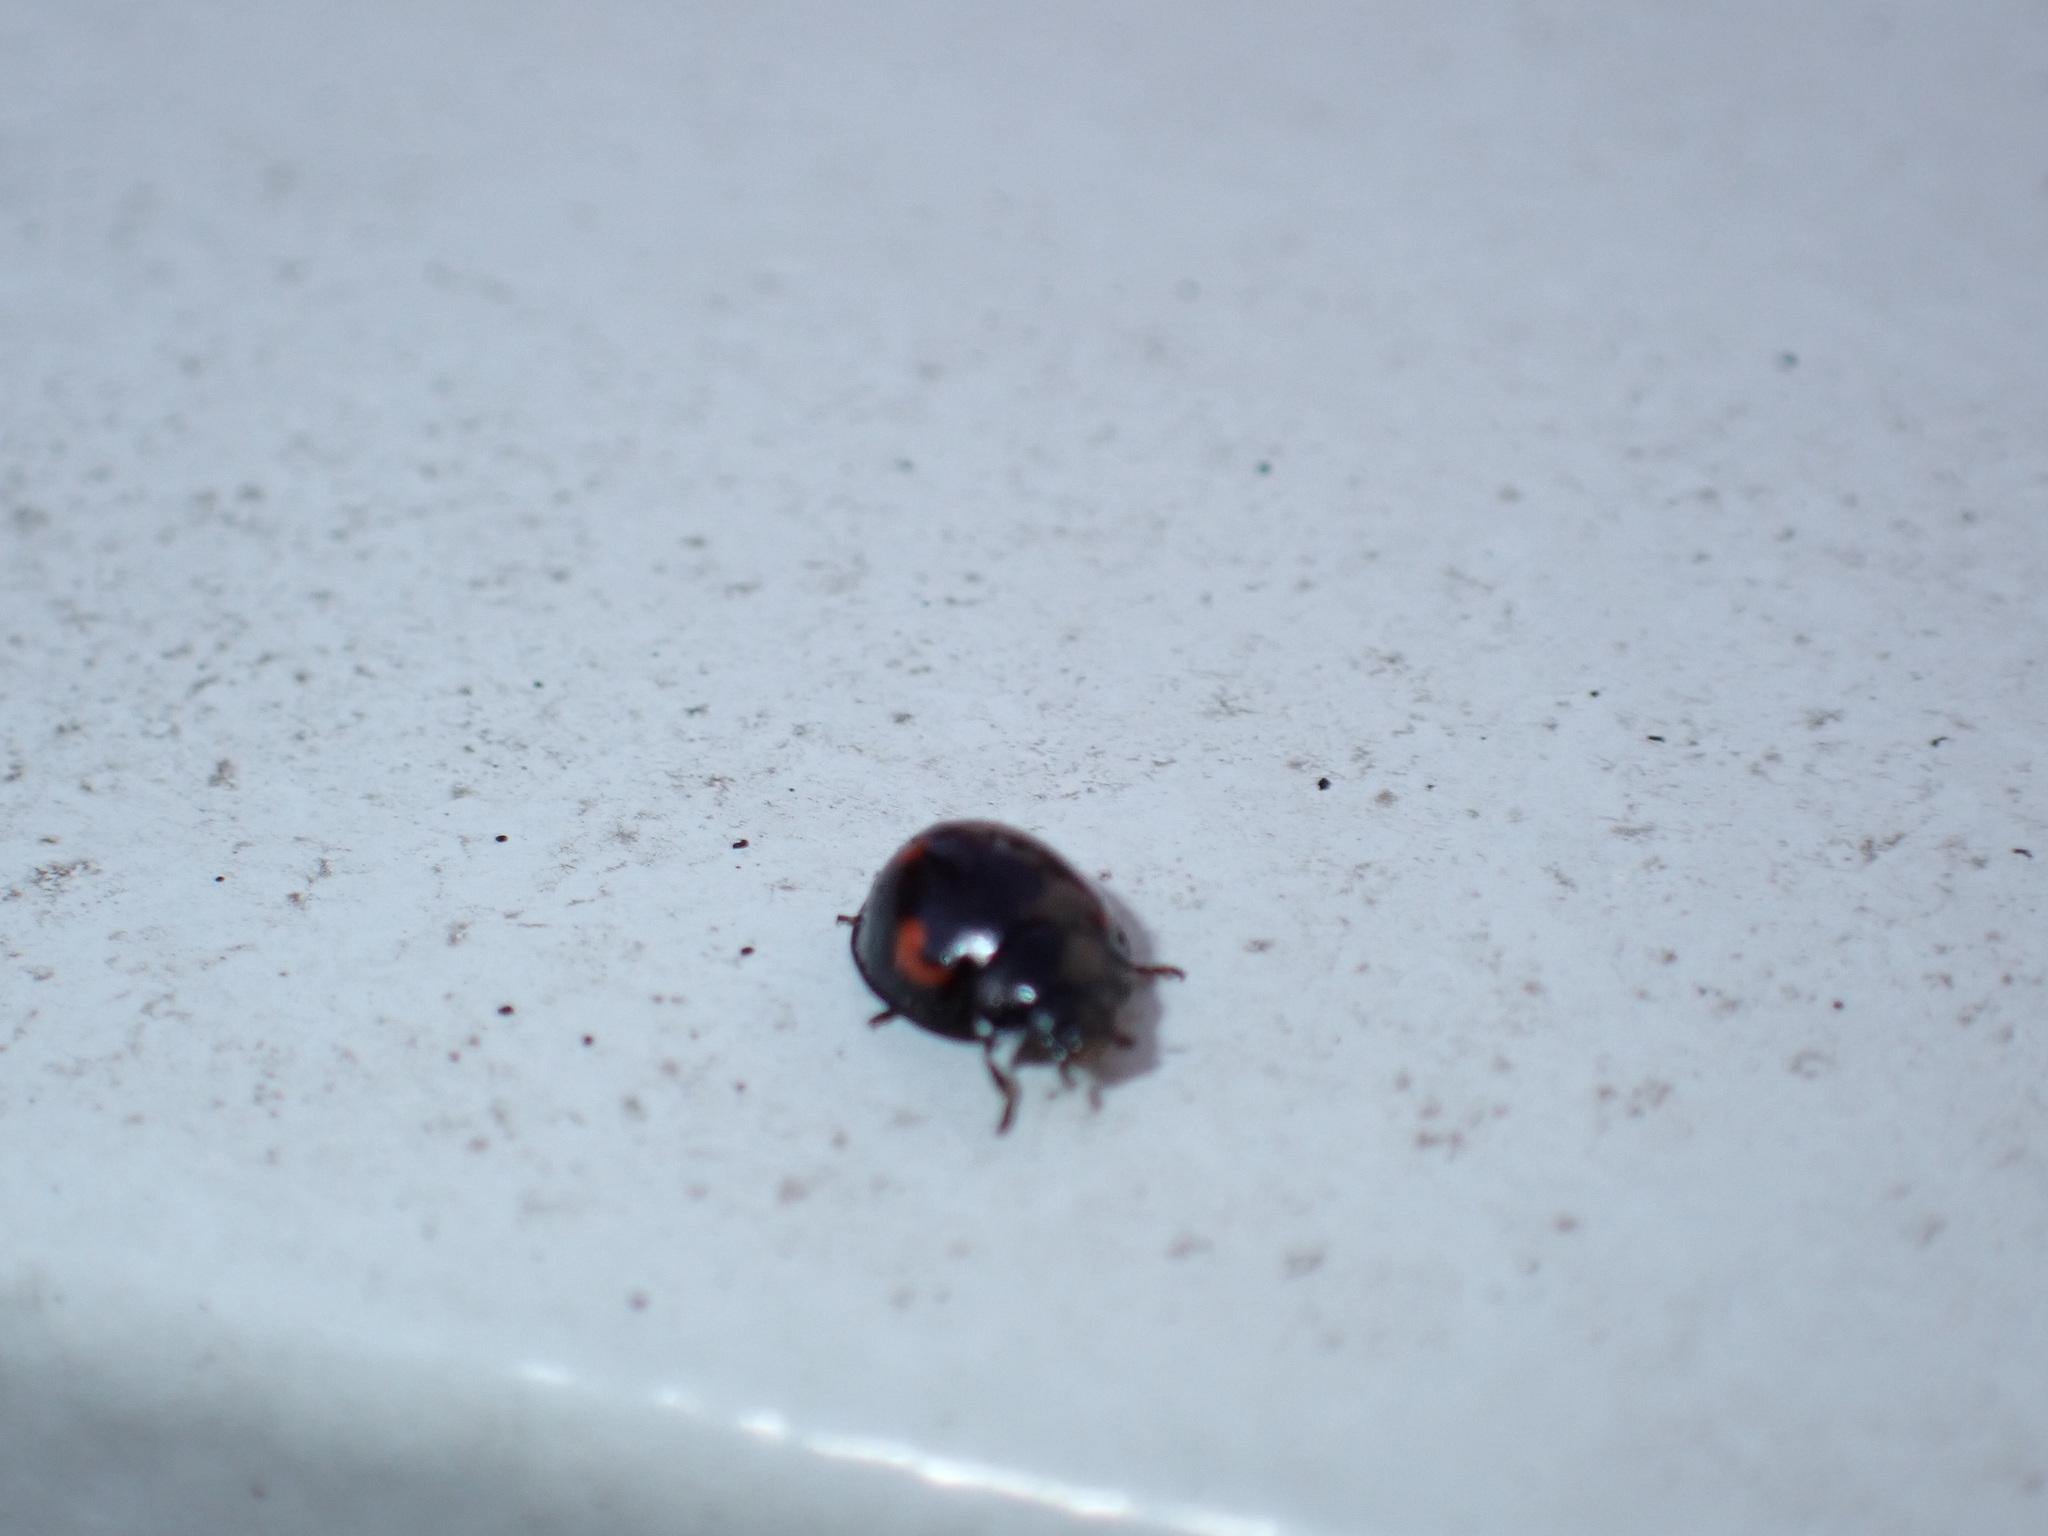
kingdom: Animalia
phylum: Arthropoda
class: Insecta
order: Coleoptera
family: Coccinellidae
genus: Brumus
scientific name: Brumus quadripustulatus
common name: Ladybird beetle
